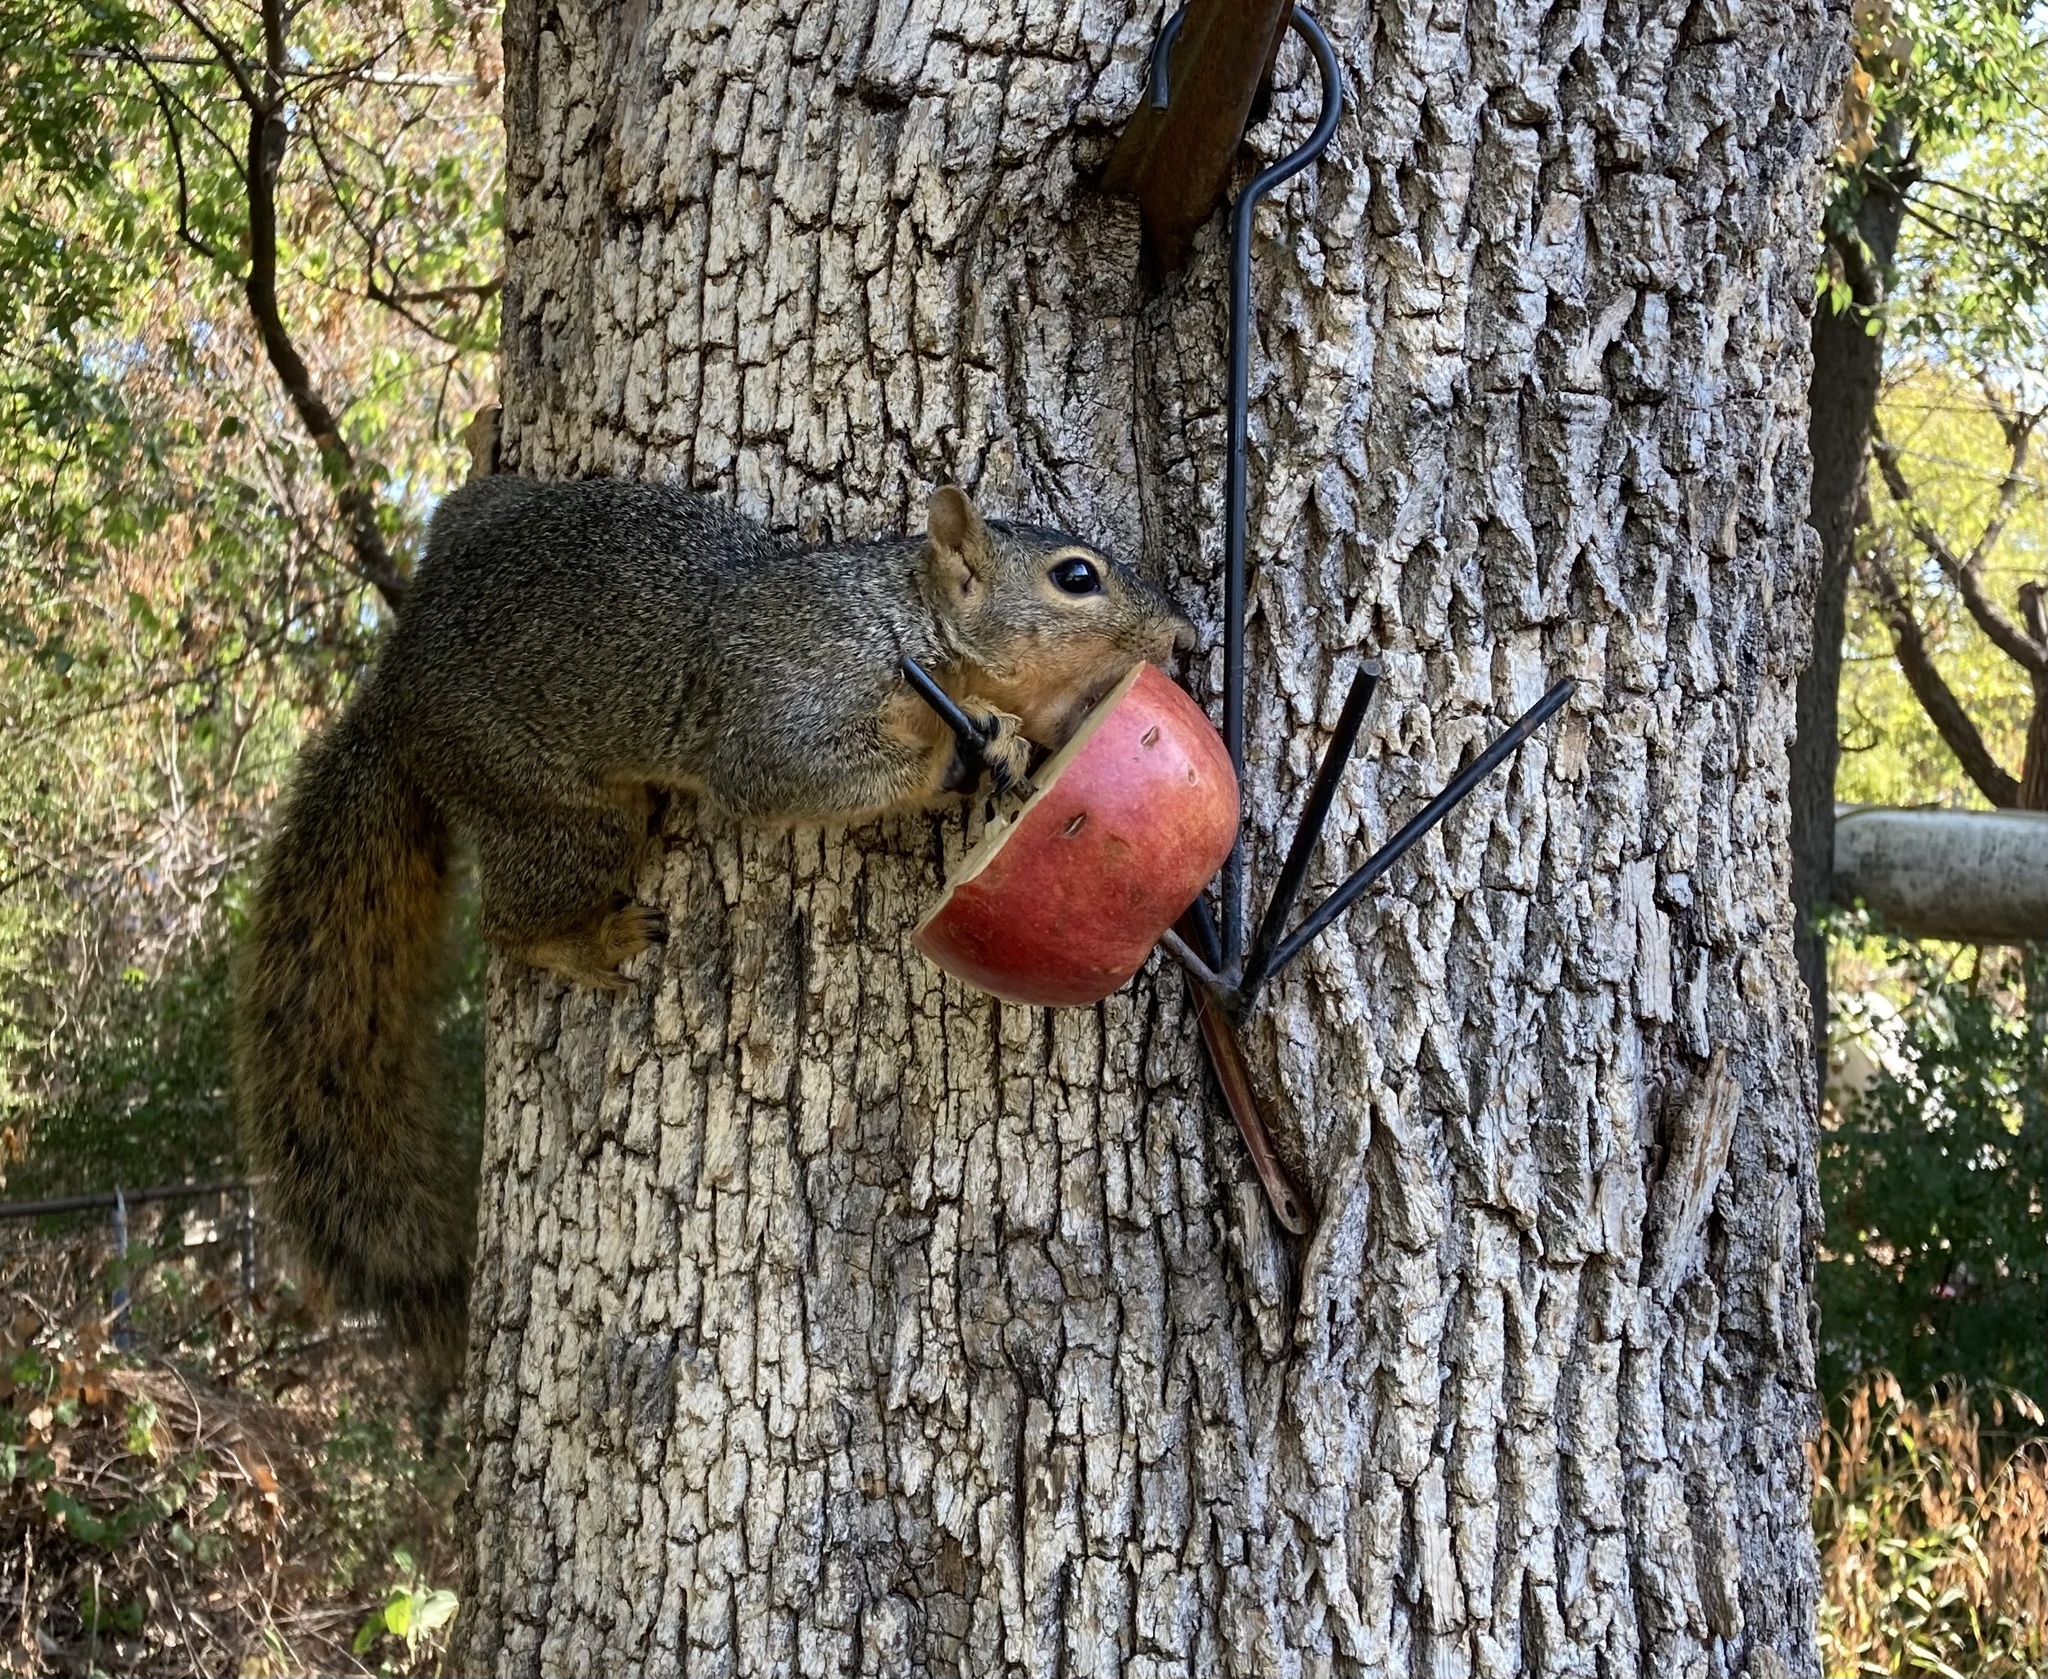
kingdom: Animalia
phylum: Chordata
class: Mammalia
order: Rodentia
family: Sciuridae
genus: Sciurus
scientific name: Sciurus niger
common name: Fox squirrel
